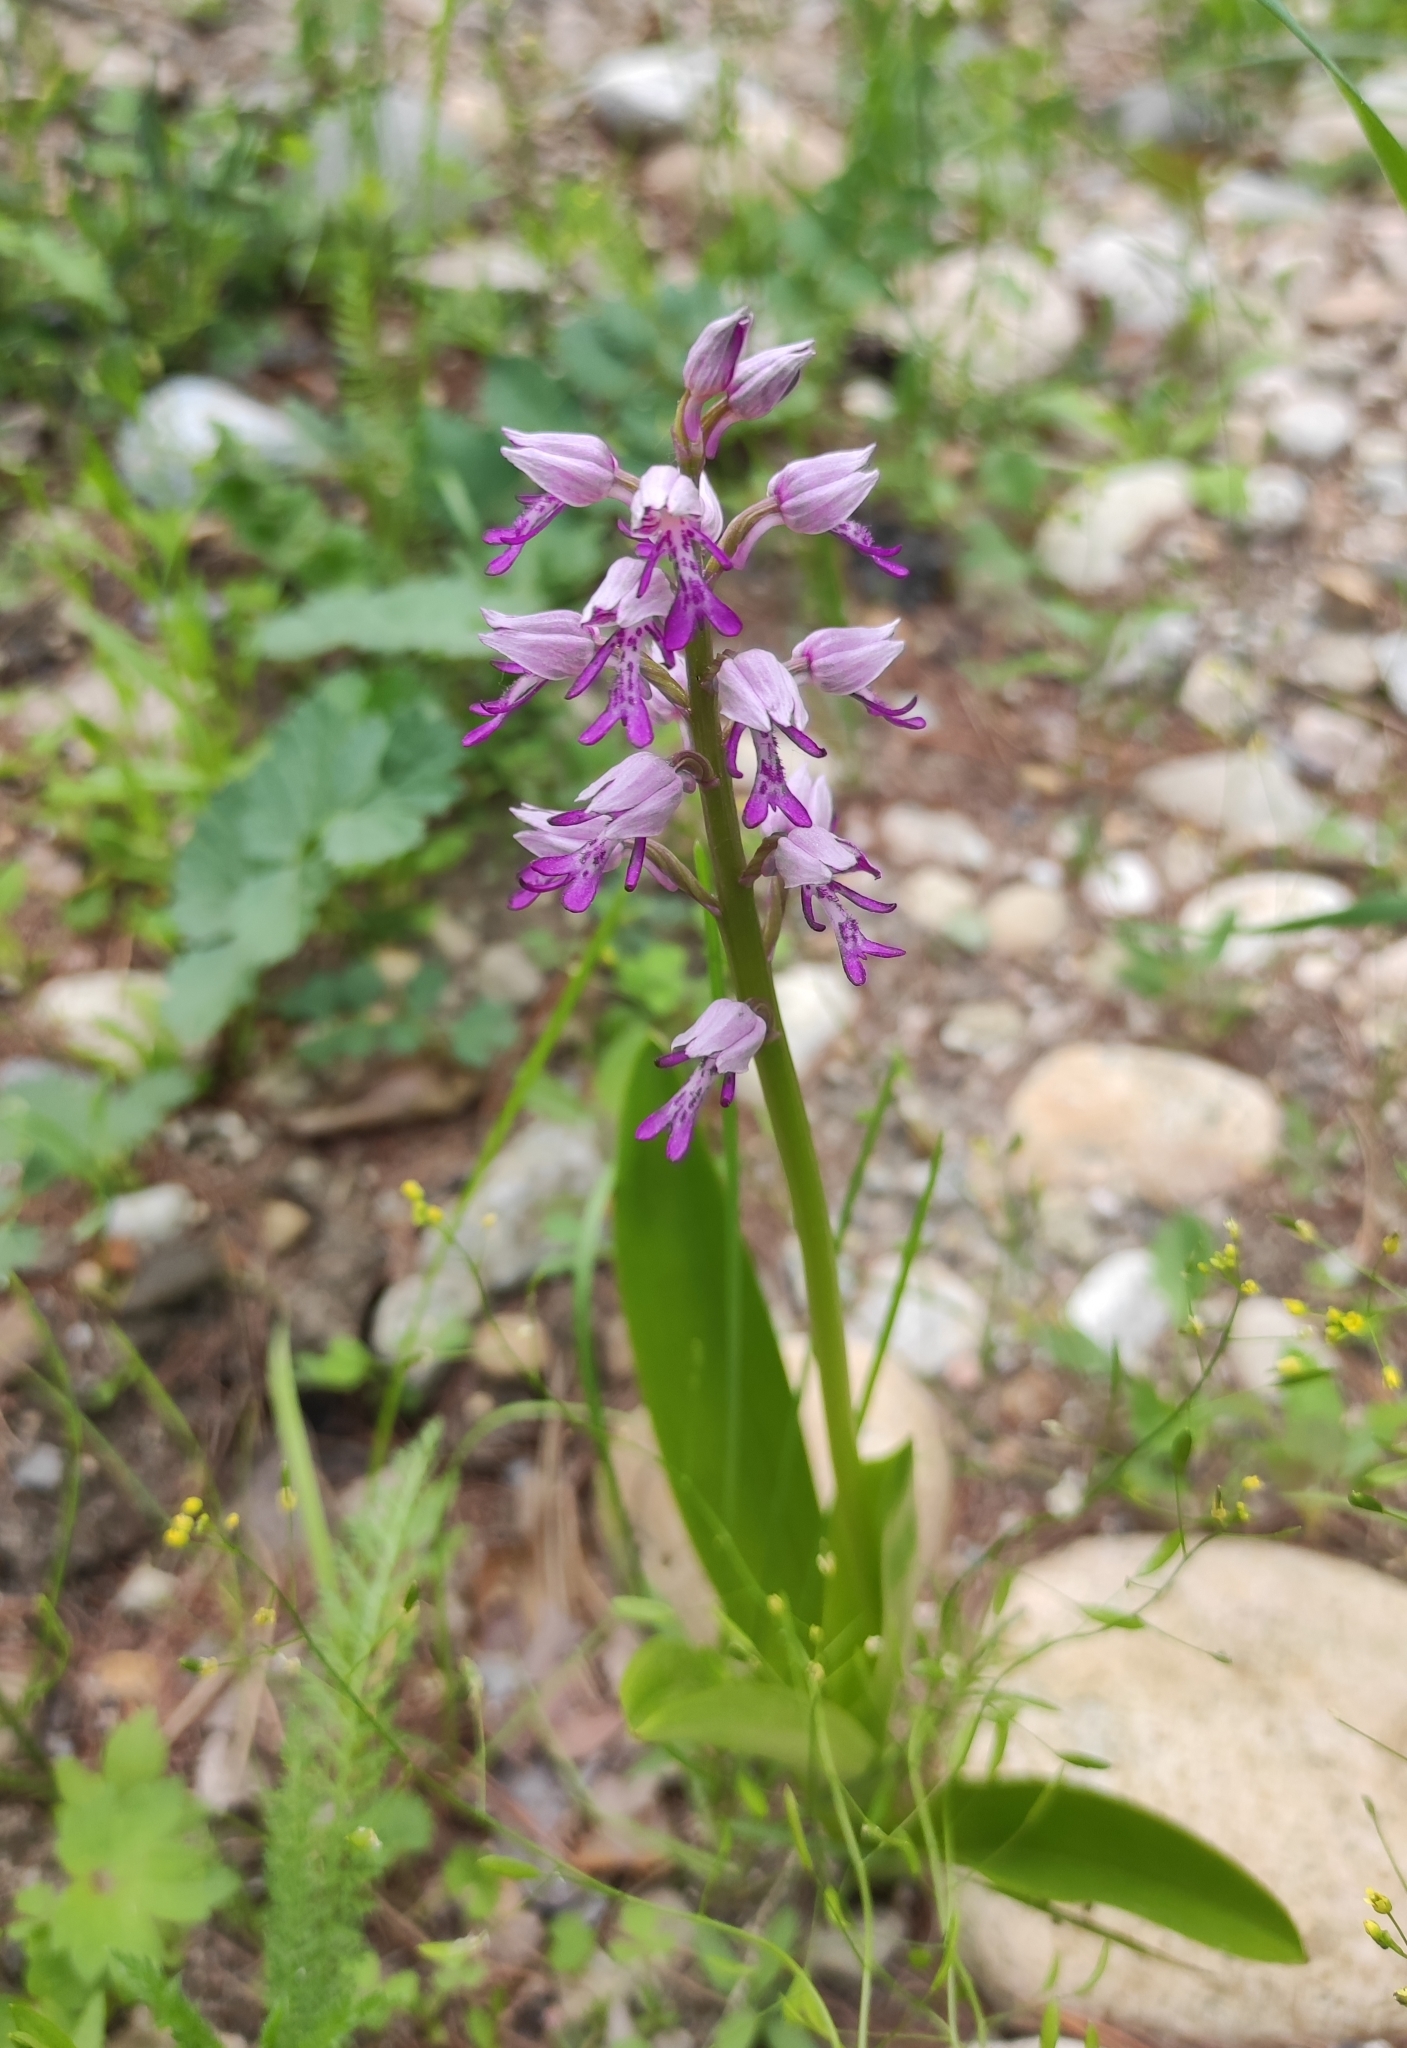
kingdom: Plantae
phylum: Tracheophyta
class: Liliopsida
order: Asparagales
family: Orchidaceae
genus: Orchis
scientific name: Orchis militaris
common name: Military orchid
